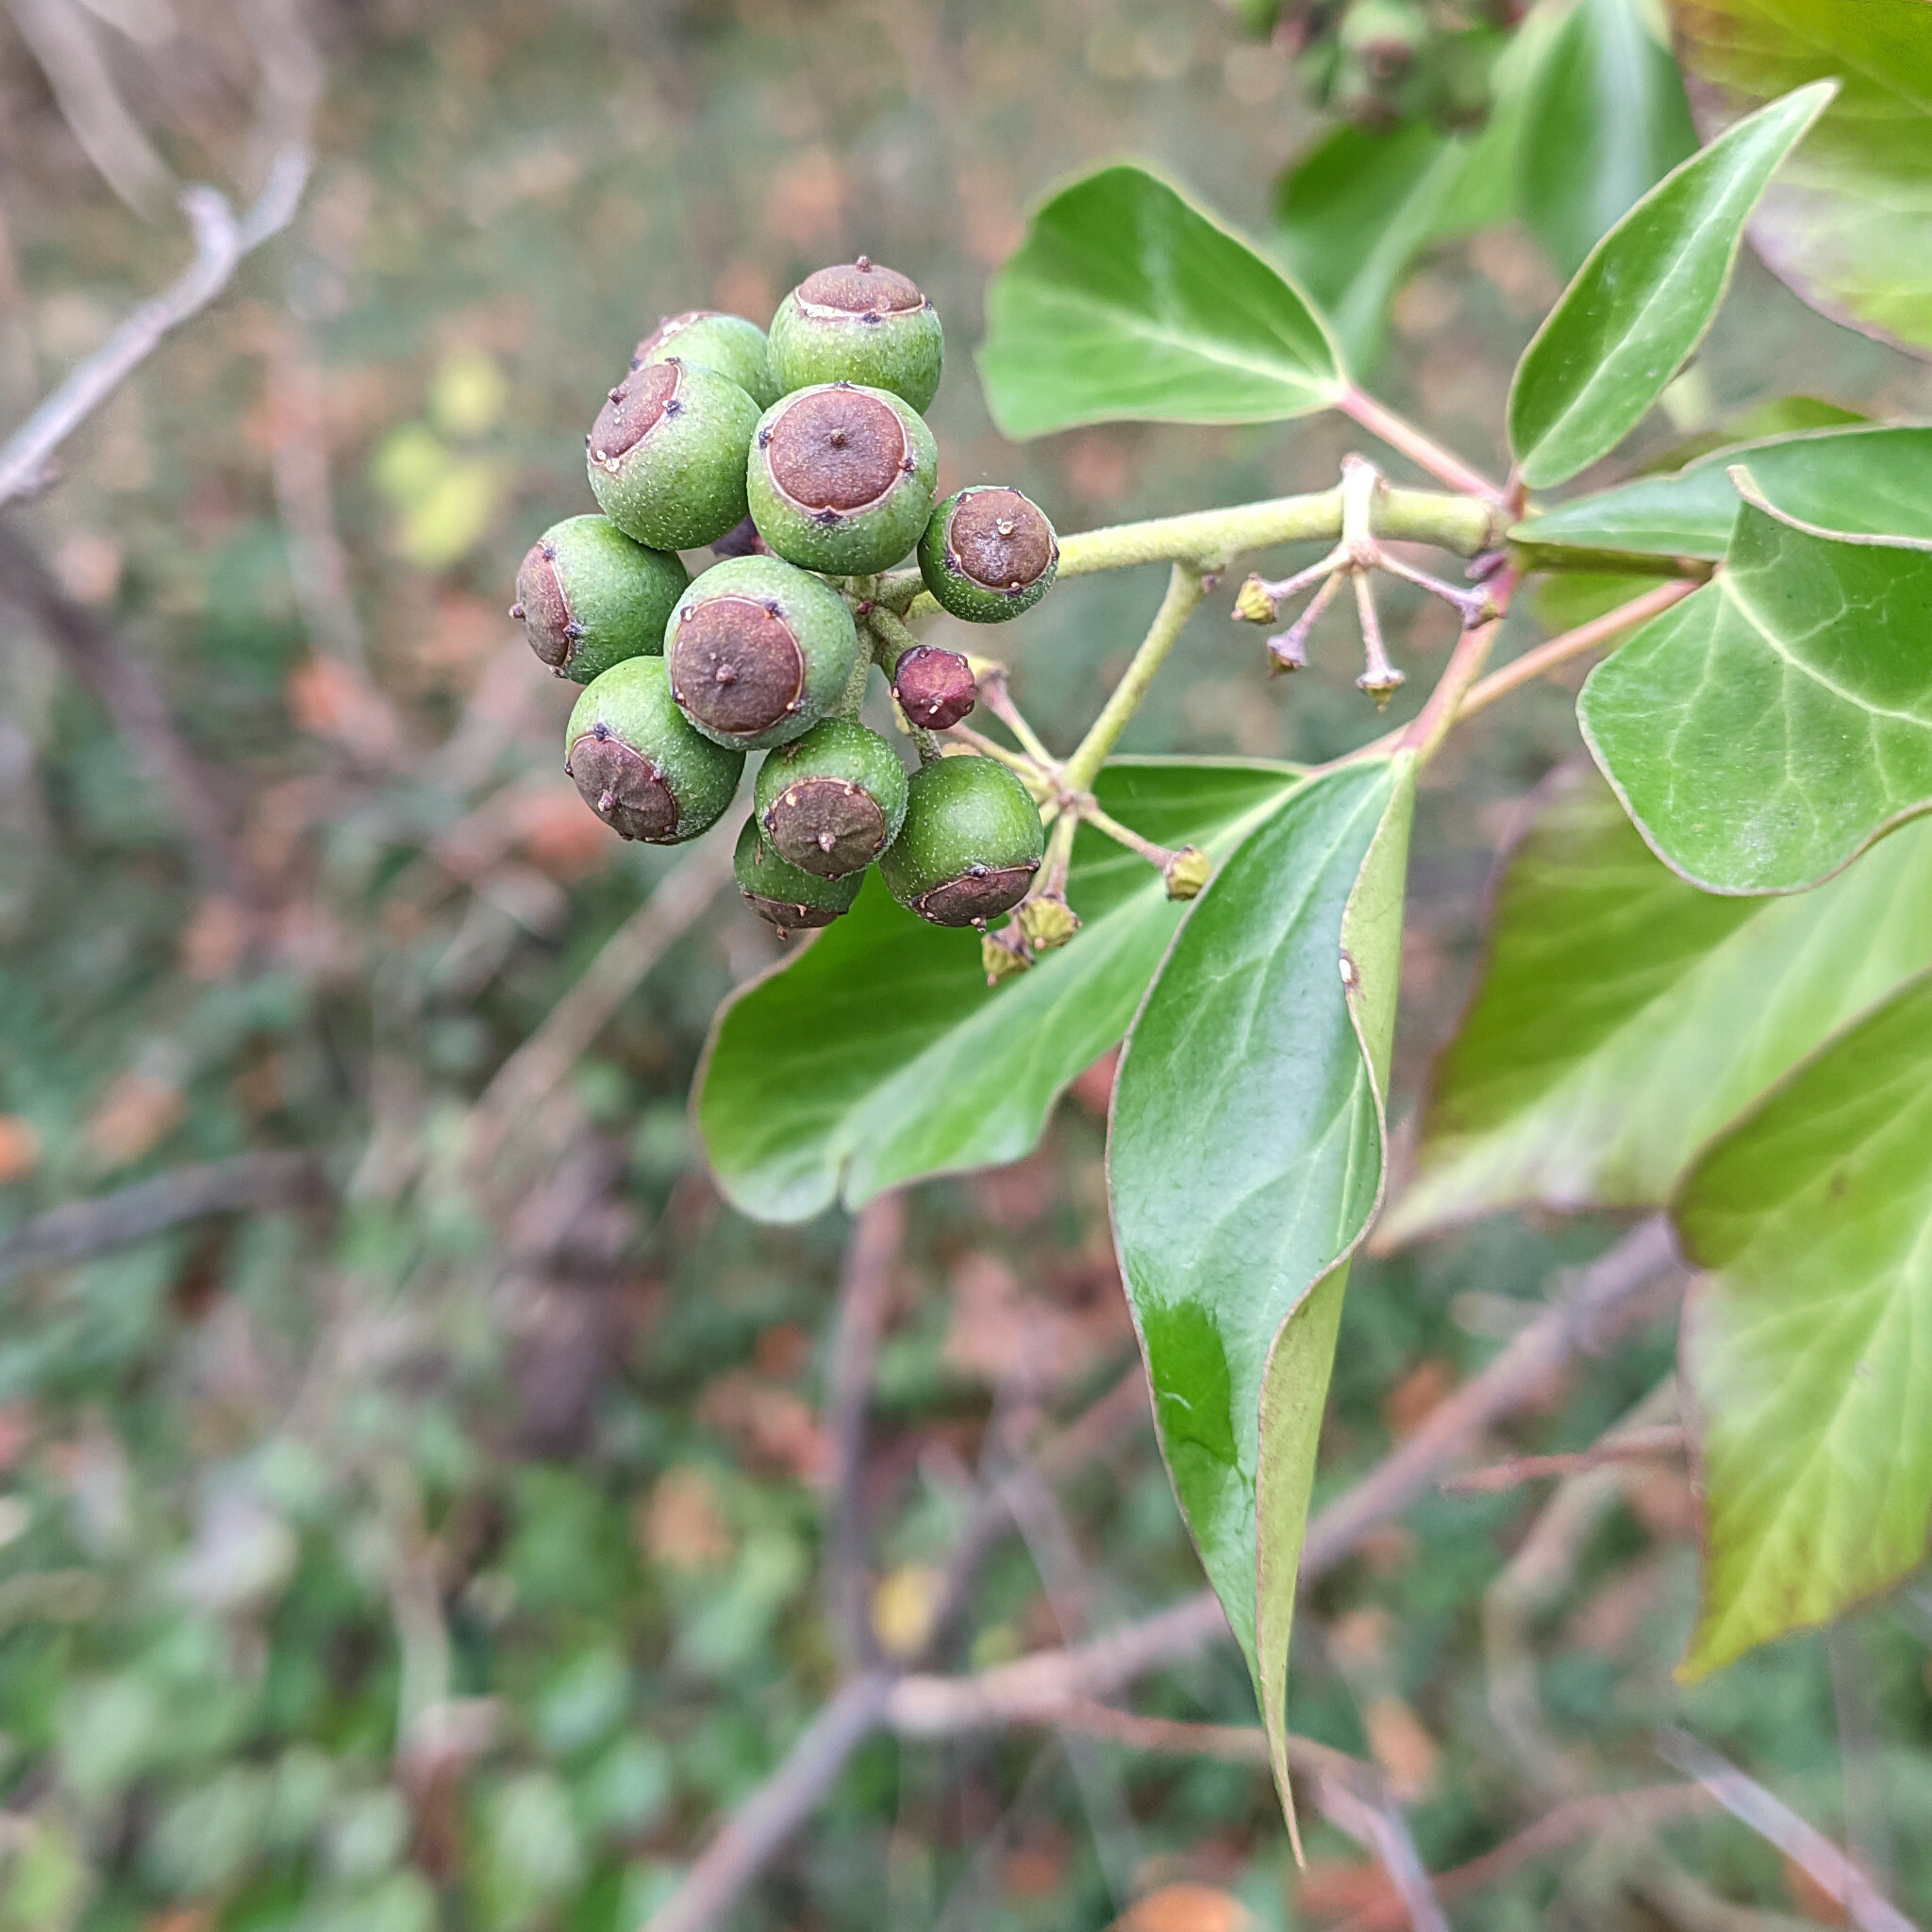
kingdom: Plantae
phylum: Tracheophyta
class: Magnoliopsida
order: Apiales
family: Araliaceae
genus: Hedera
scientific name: Hedera helix
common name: Ivy
